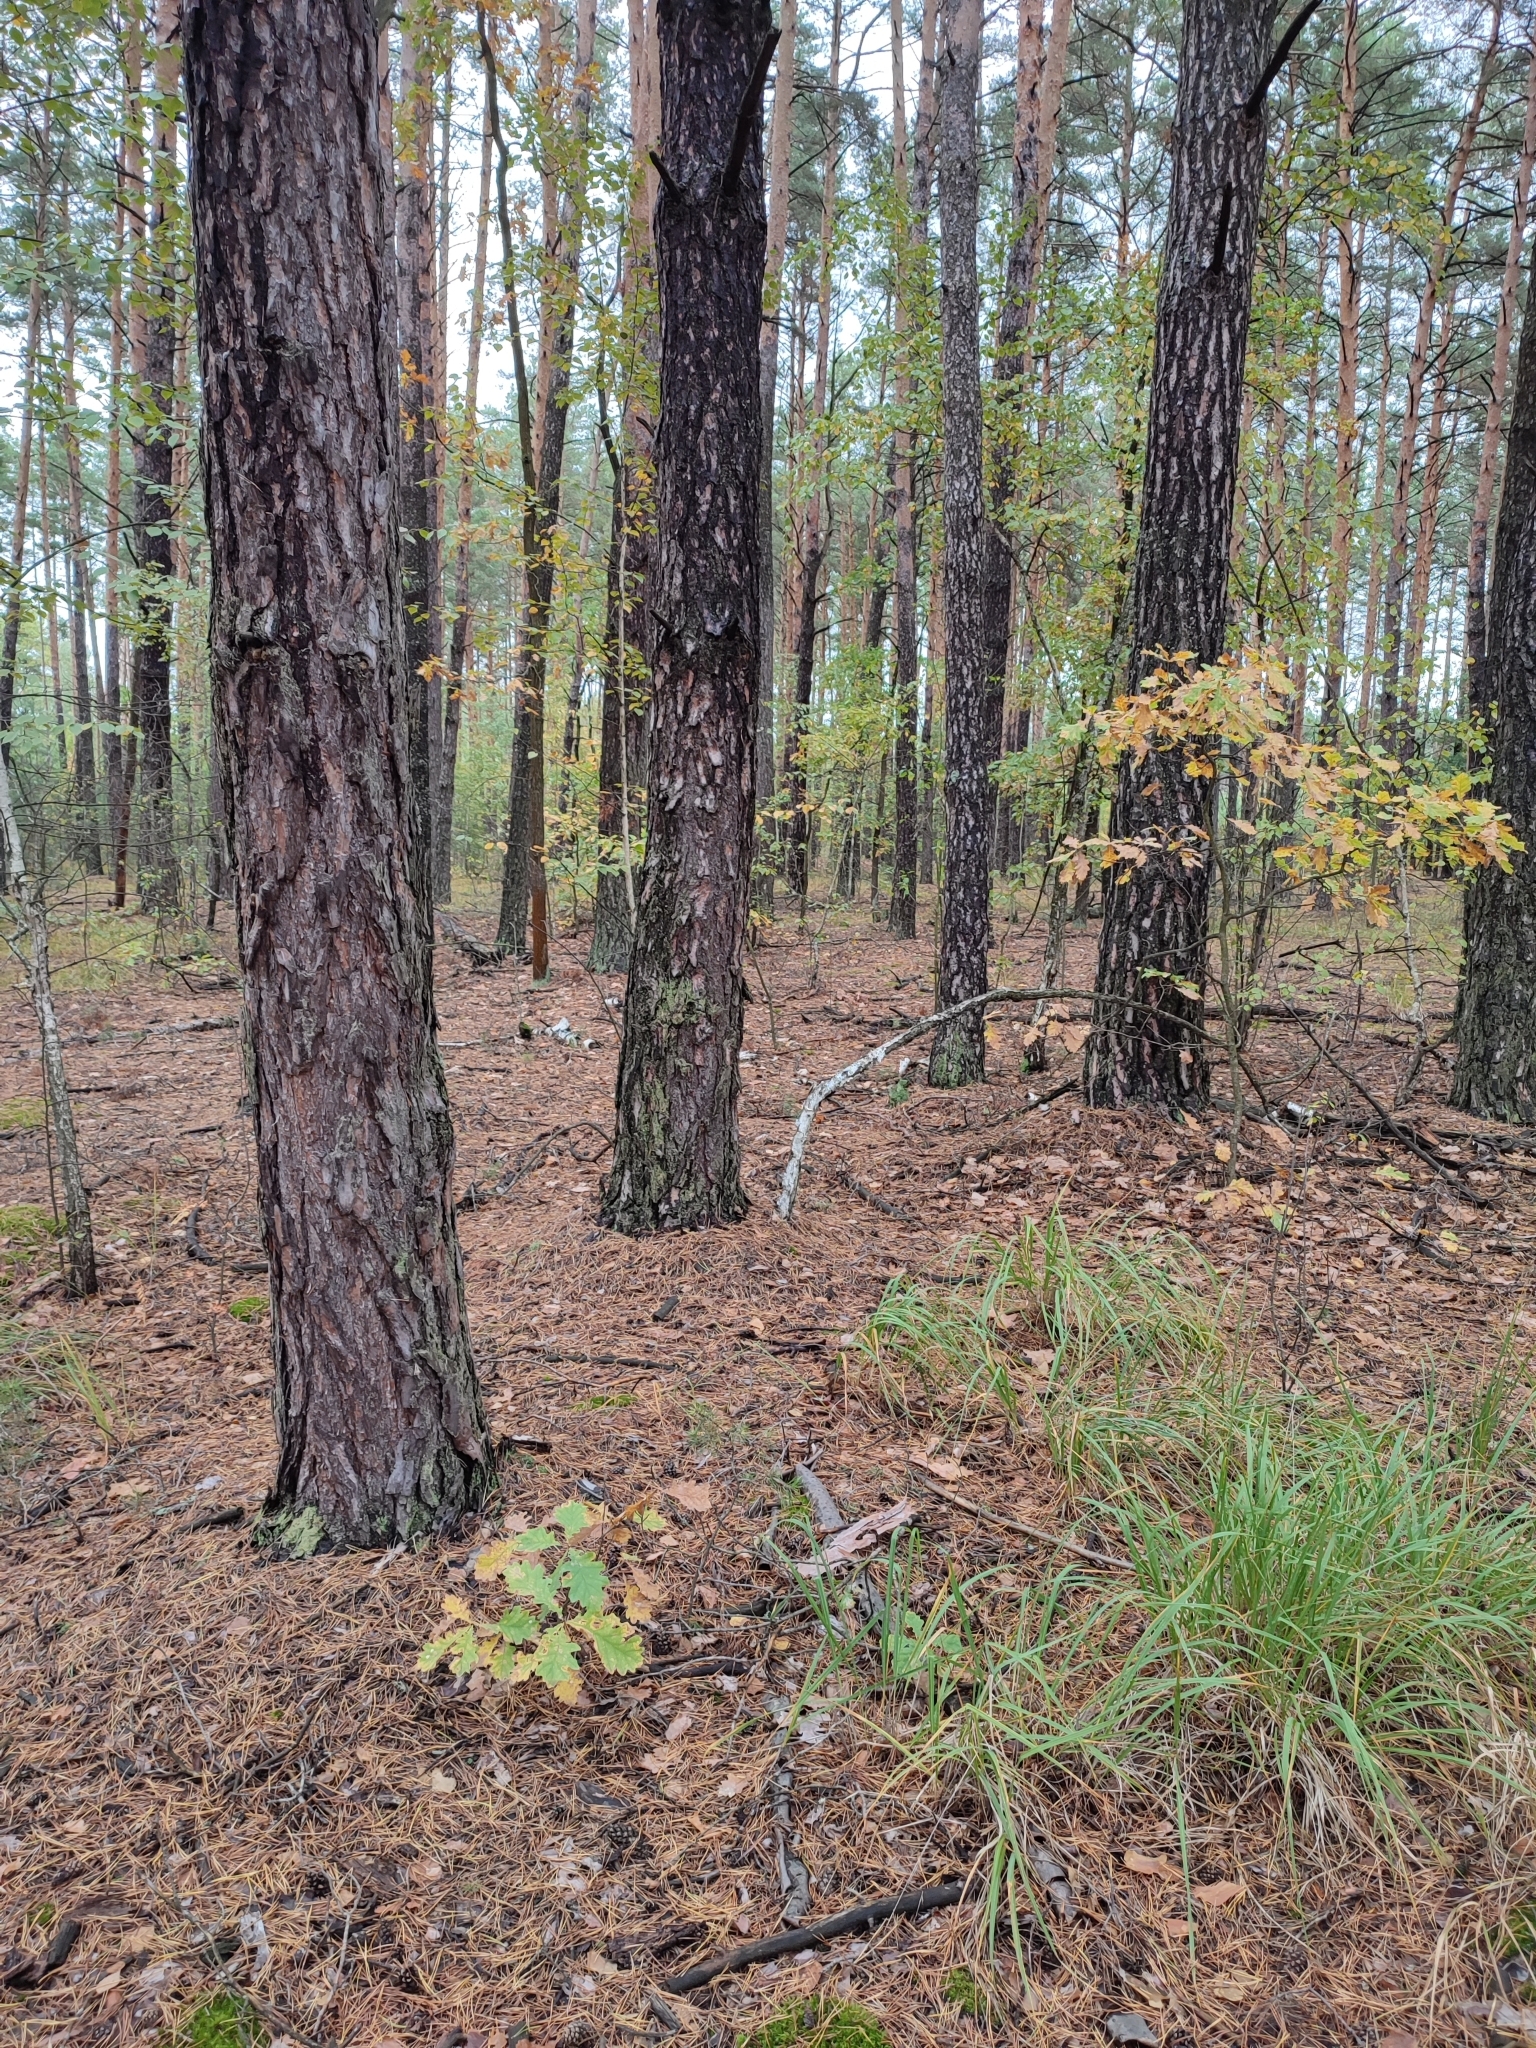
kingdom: Plantae
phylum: Tracheophyta
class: Magnoliopsida
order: Fagales
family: Fagaceae
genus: Quercus
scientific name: Quercus robur
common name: Pedunculate oak
